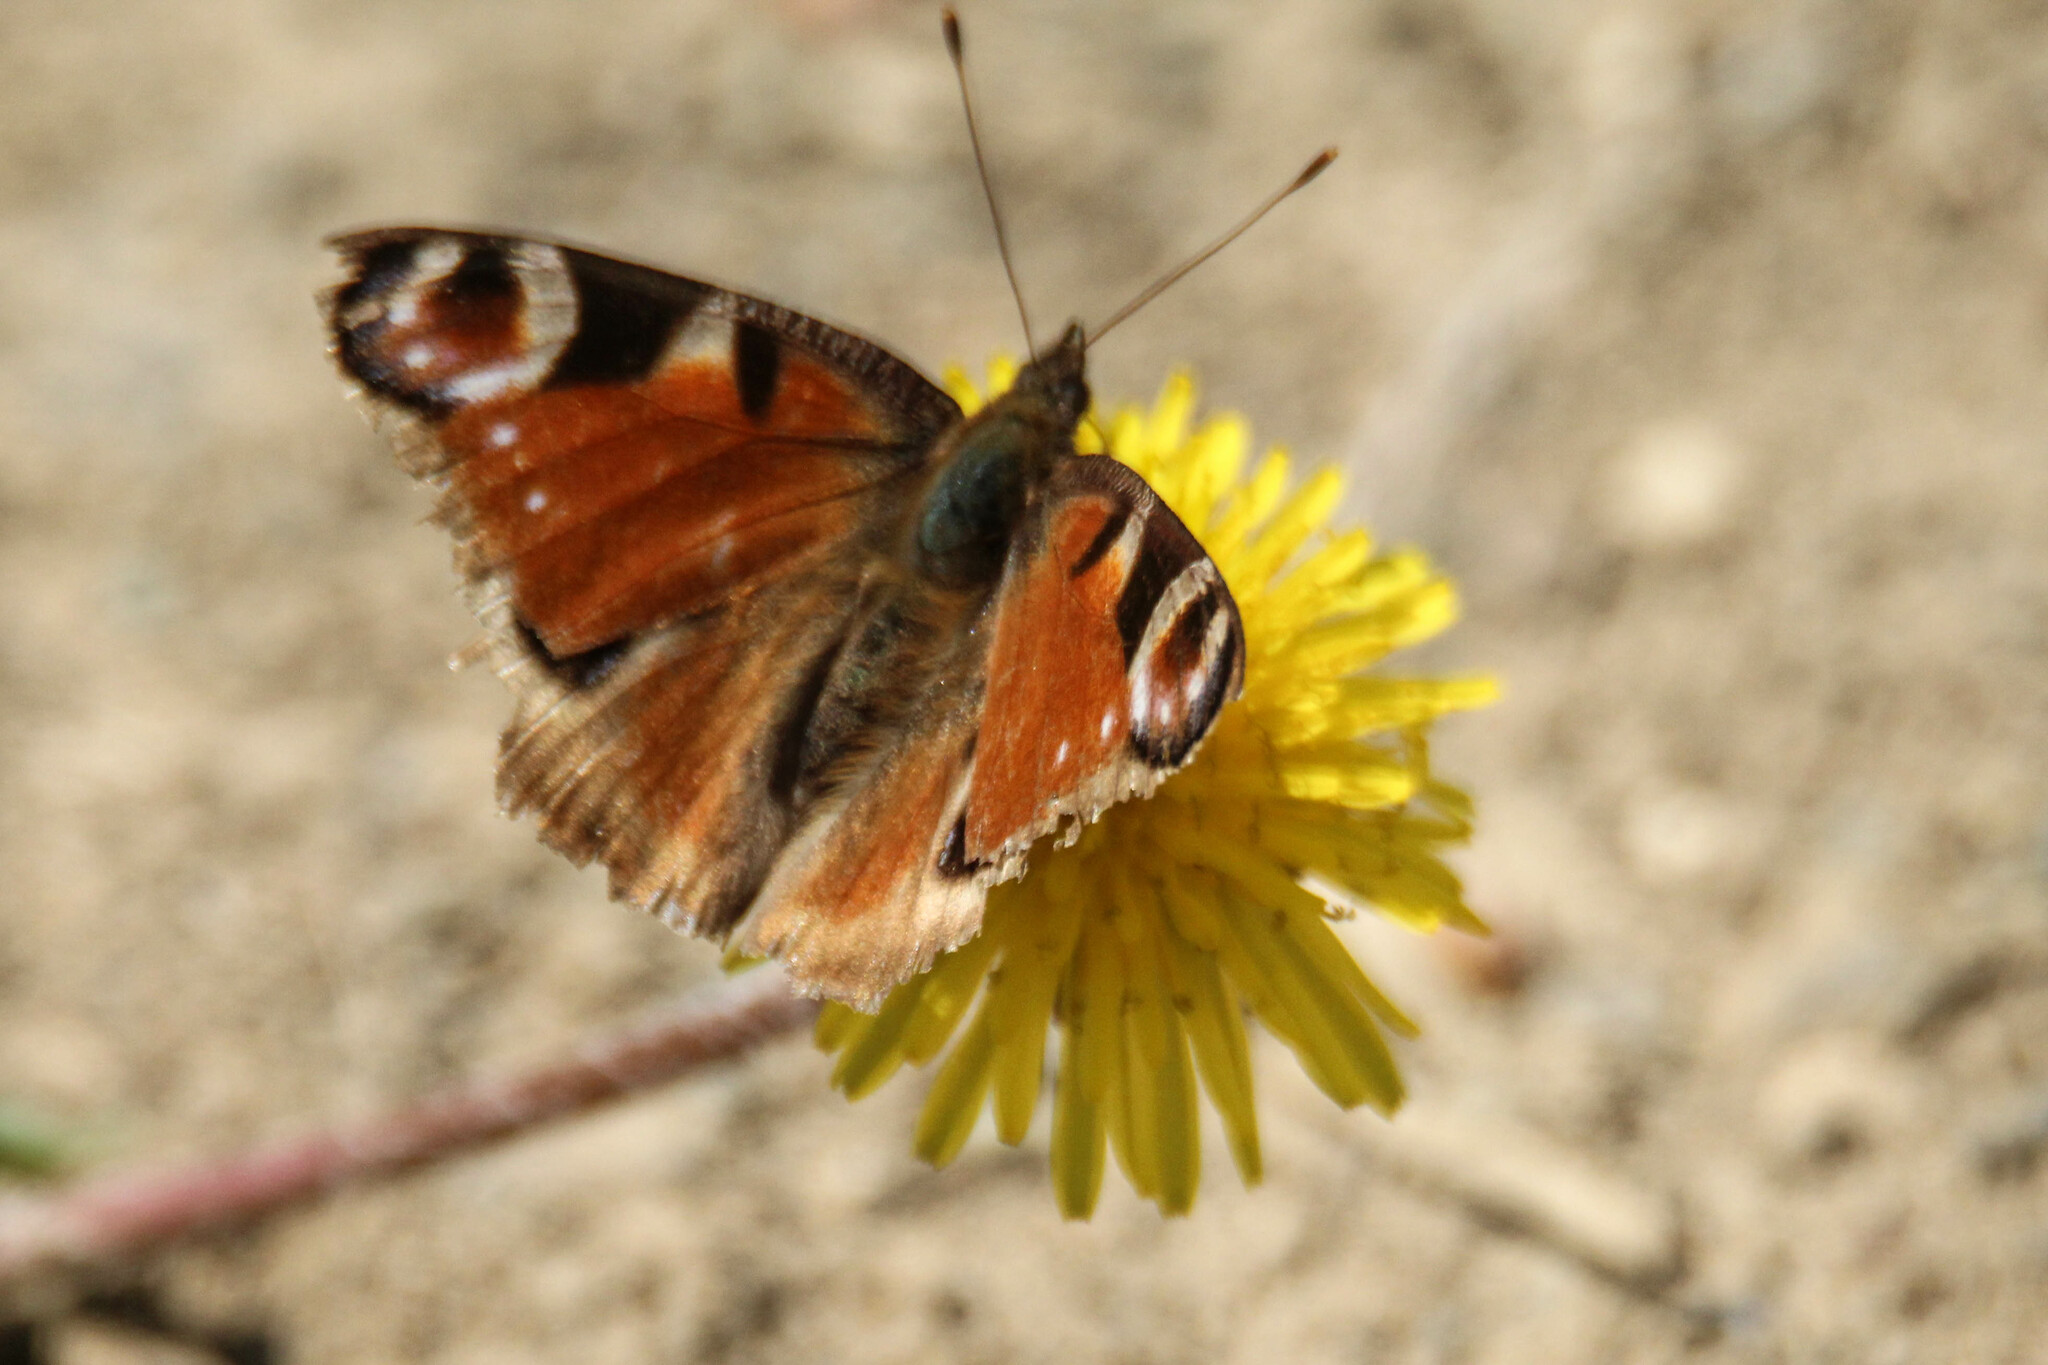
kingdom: Animalia
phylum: Arthropoda
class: Insecta
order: Lepidoptera
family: Nymphalidae
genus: Aglais
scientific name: Aglais io
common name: Peacock
